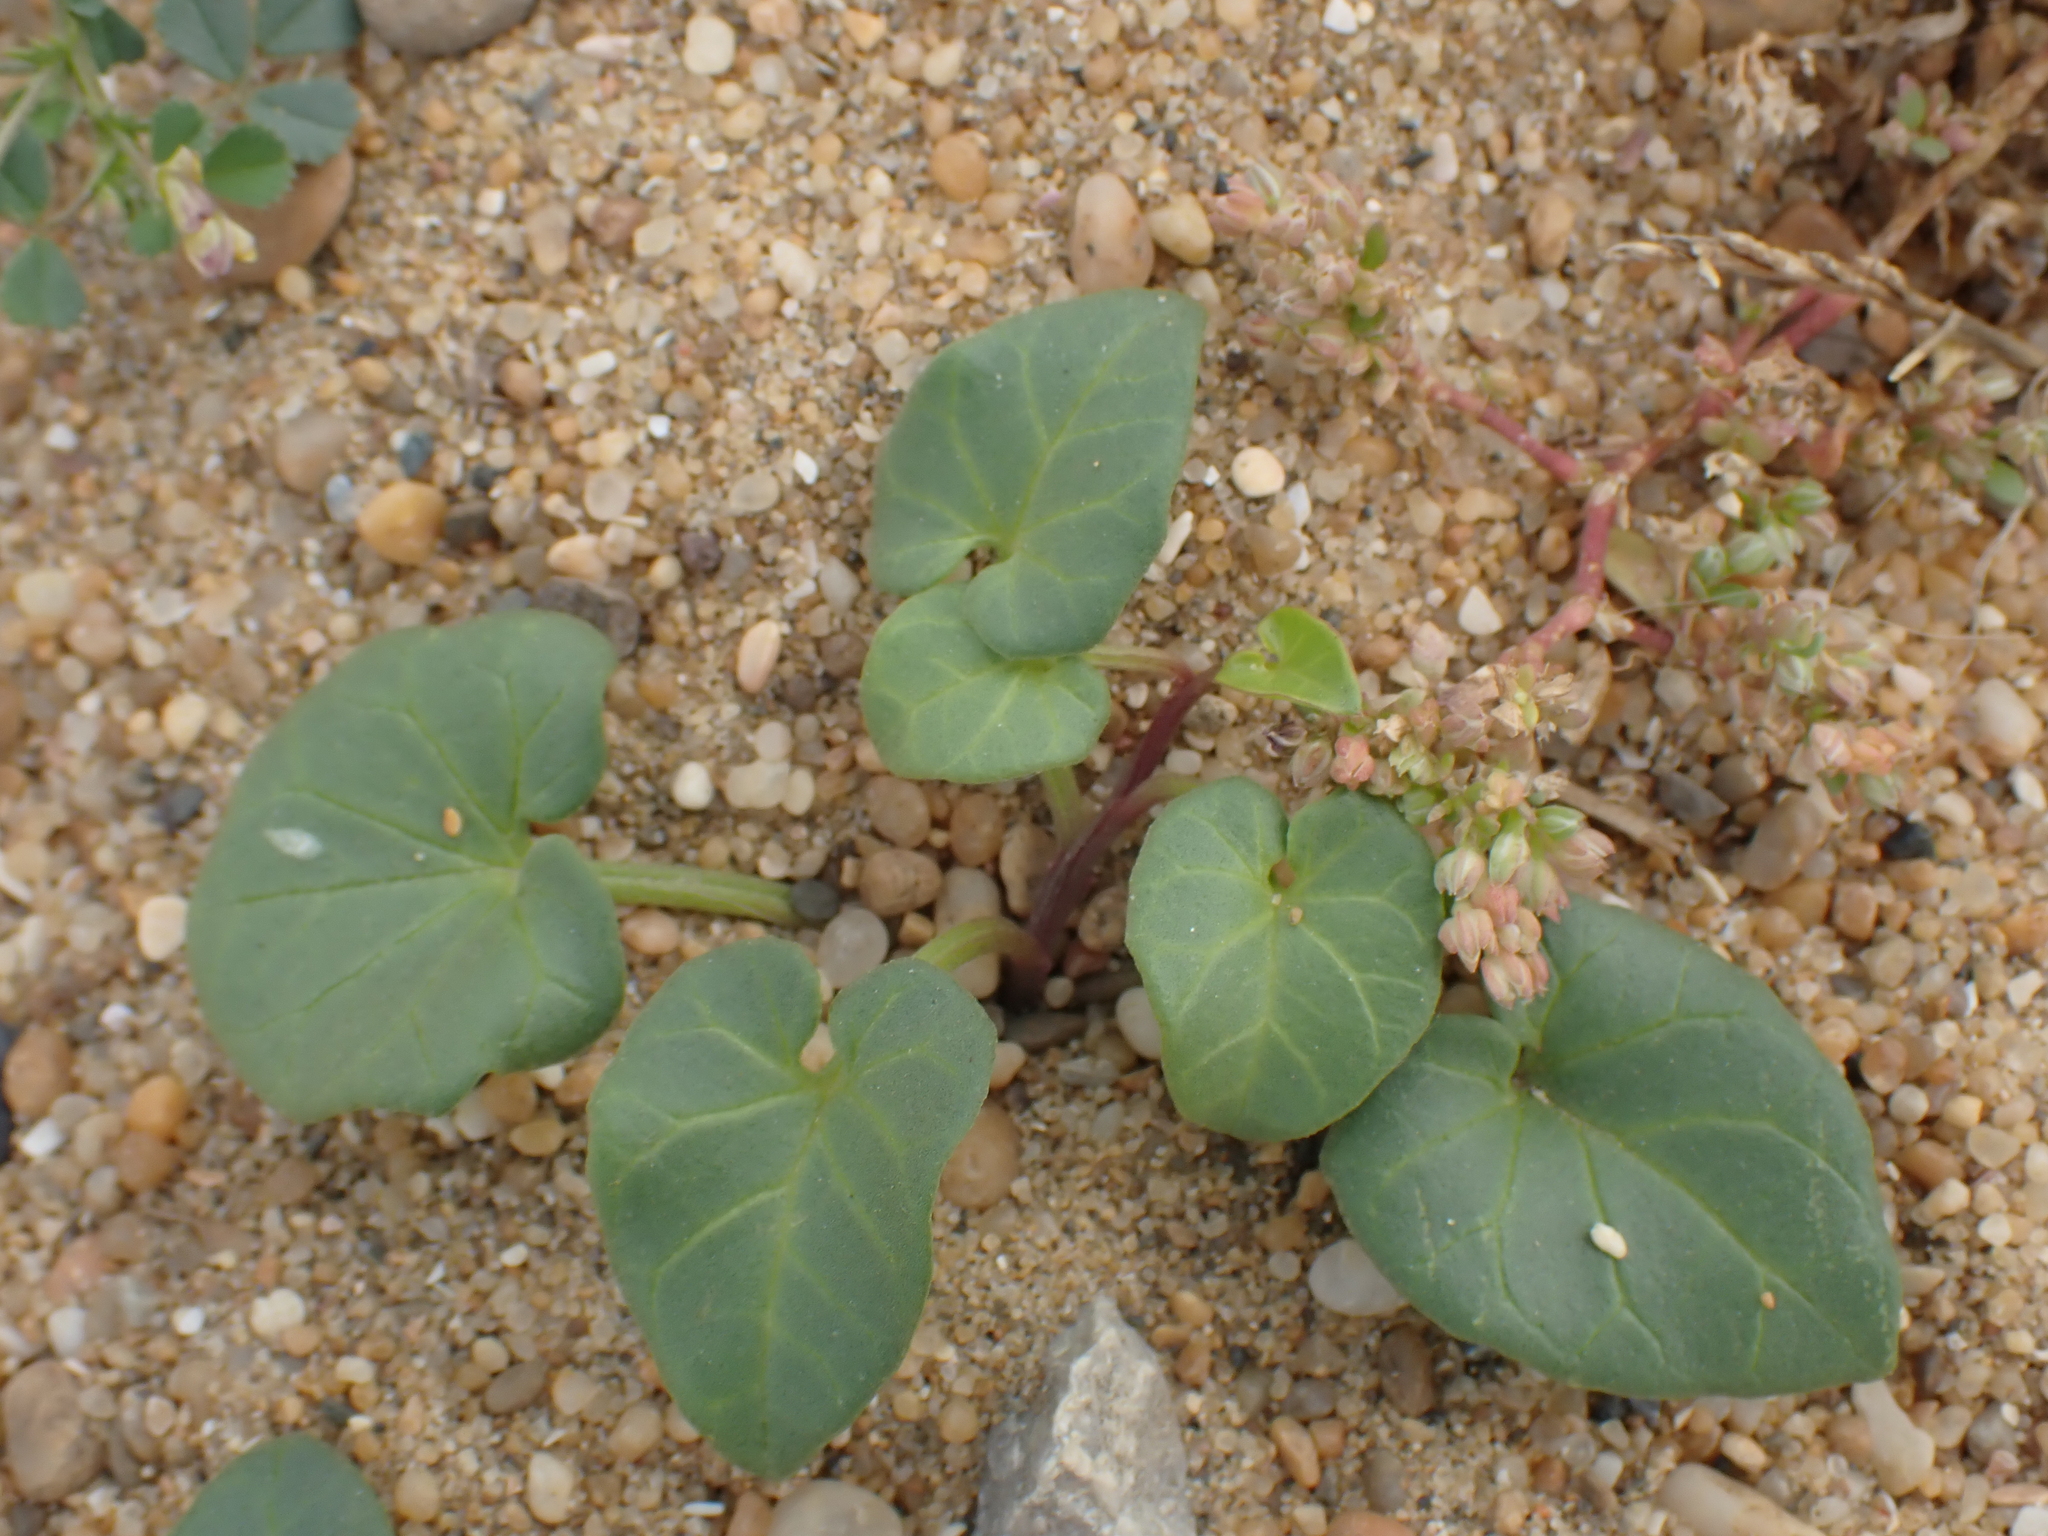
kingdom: Plantae
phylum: Tracheophyta
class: Magnoliopsida
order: Solanales
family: Convolvulaceae
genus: Calystegia
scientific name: Calystegia soldanella
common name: Sea bindweed
